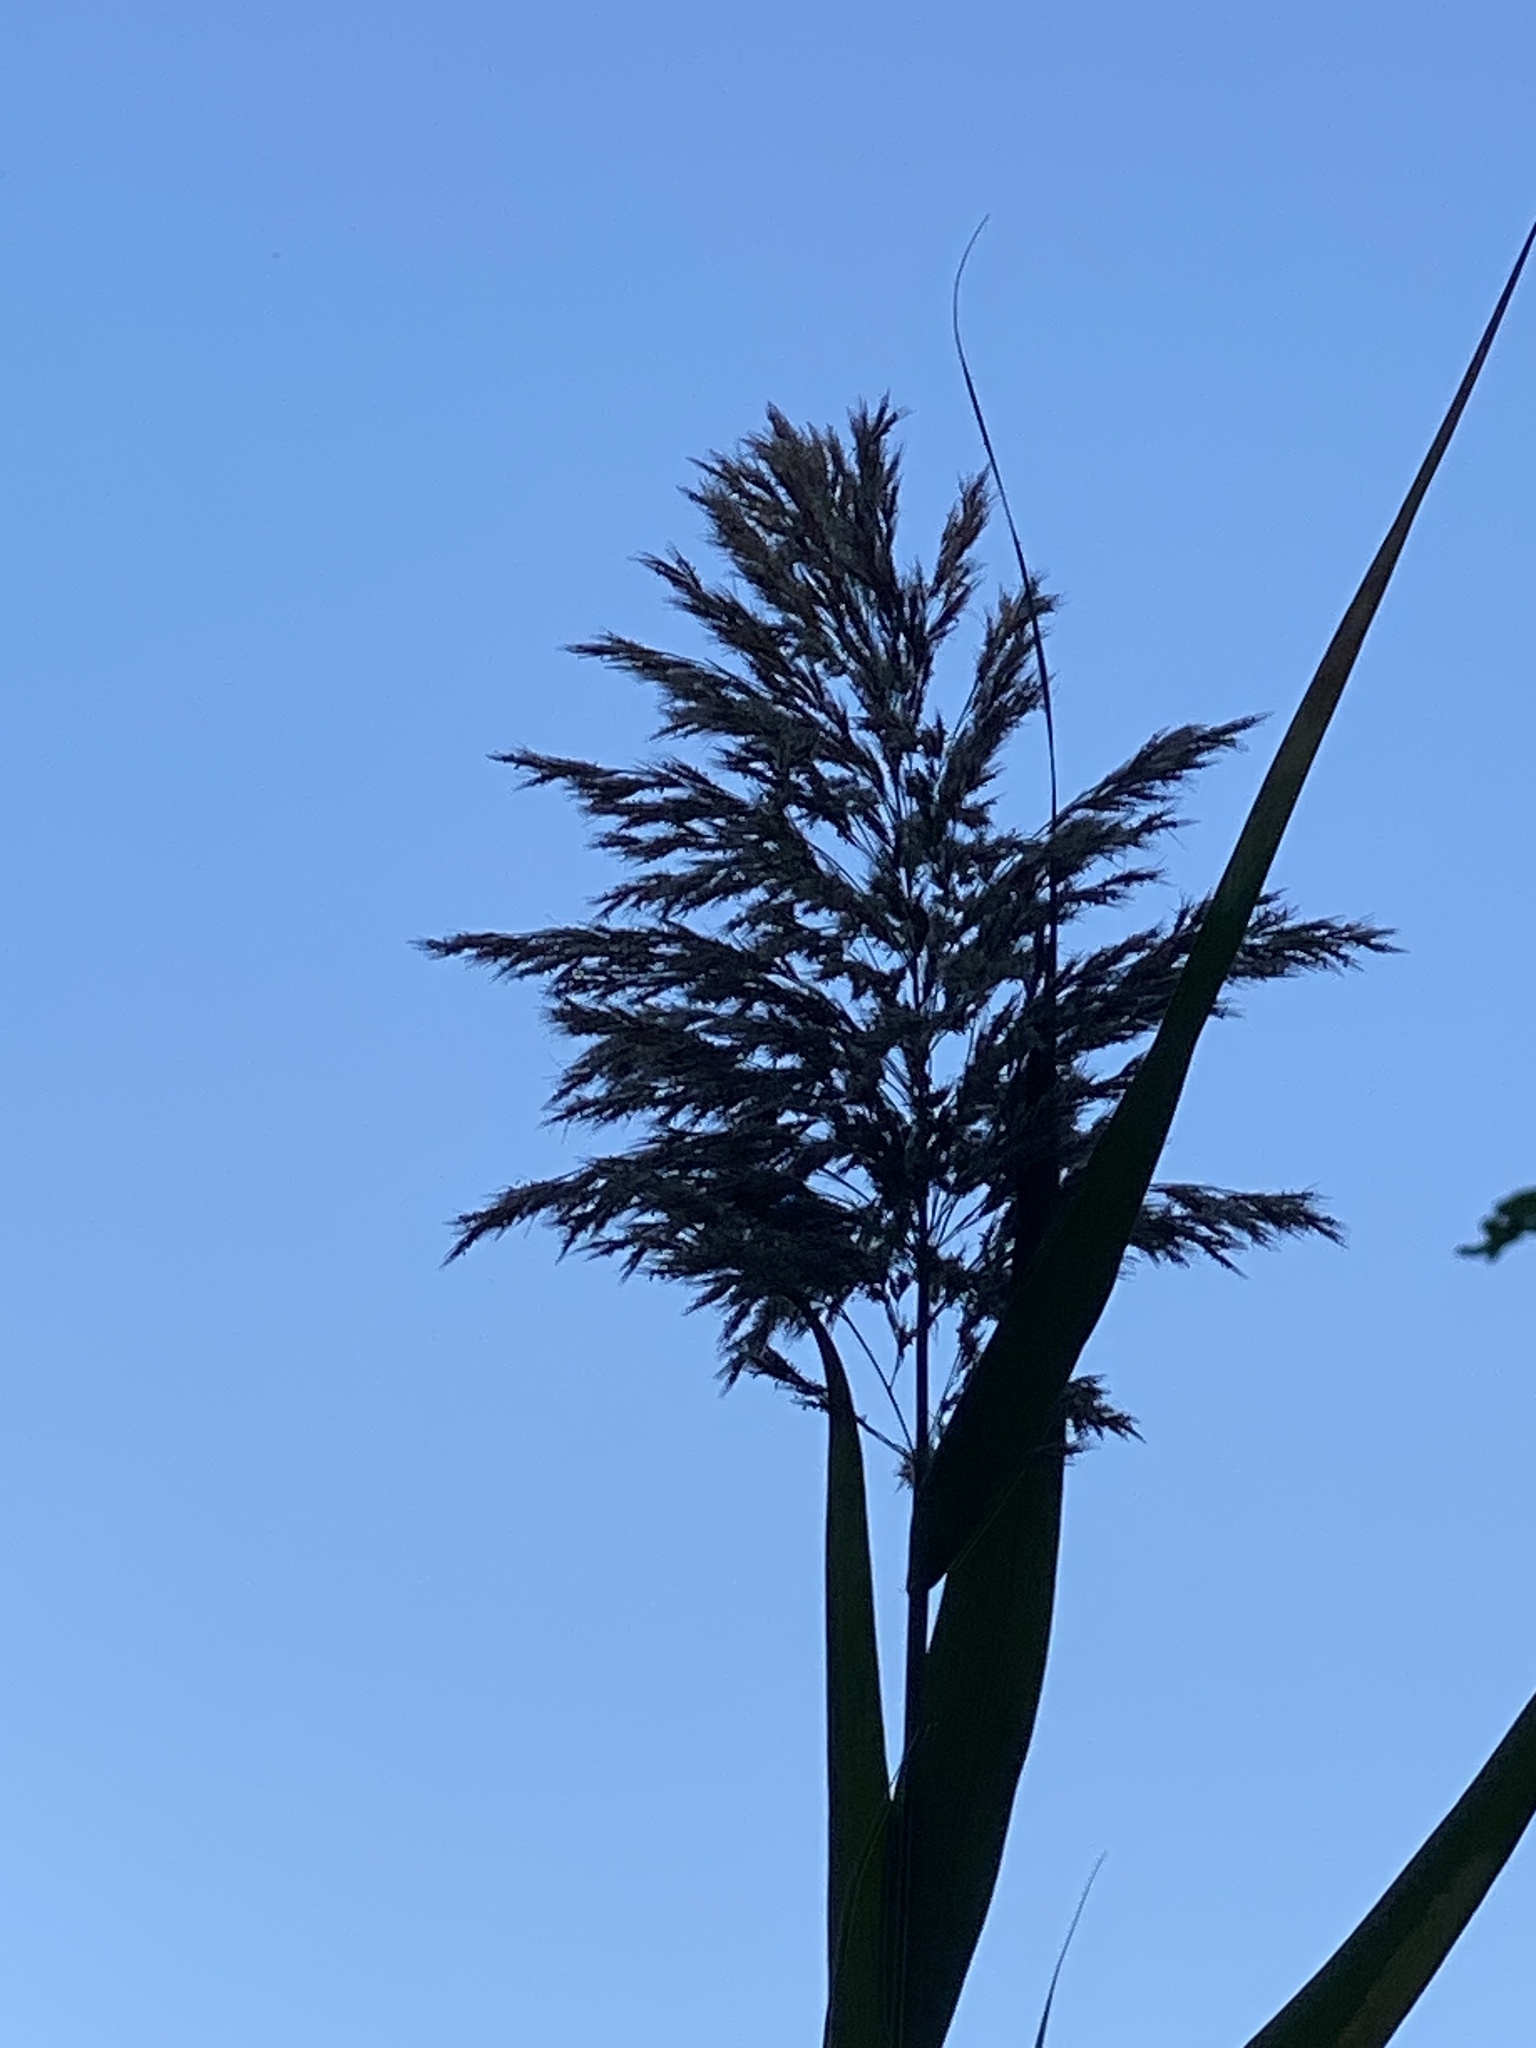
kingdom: Plantae
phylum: Tracheophyta
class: Liliopsida
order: Poales
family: Poaceae
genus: Phragmites
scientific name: Phragmites australis
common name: Common reed
